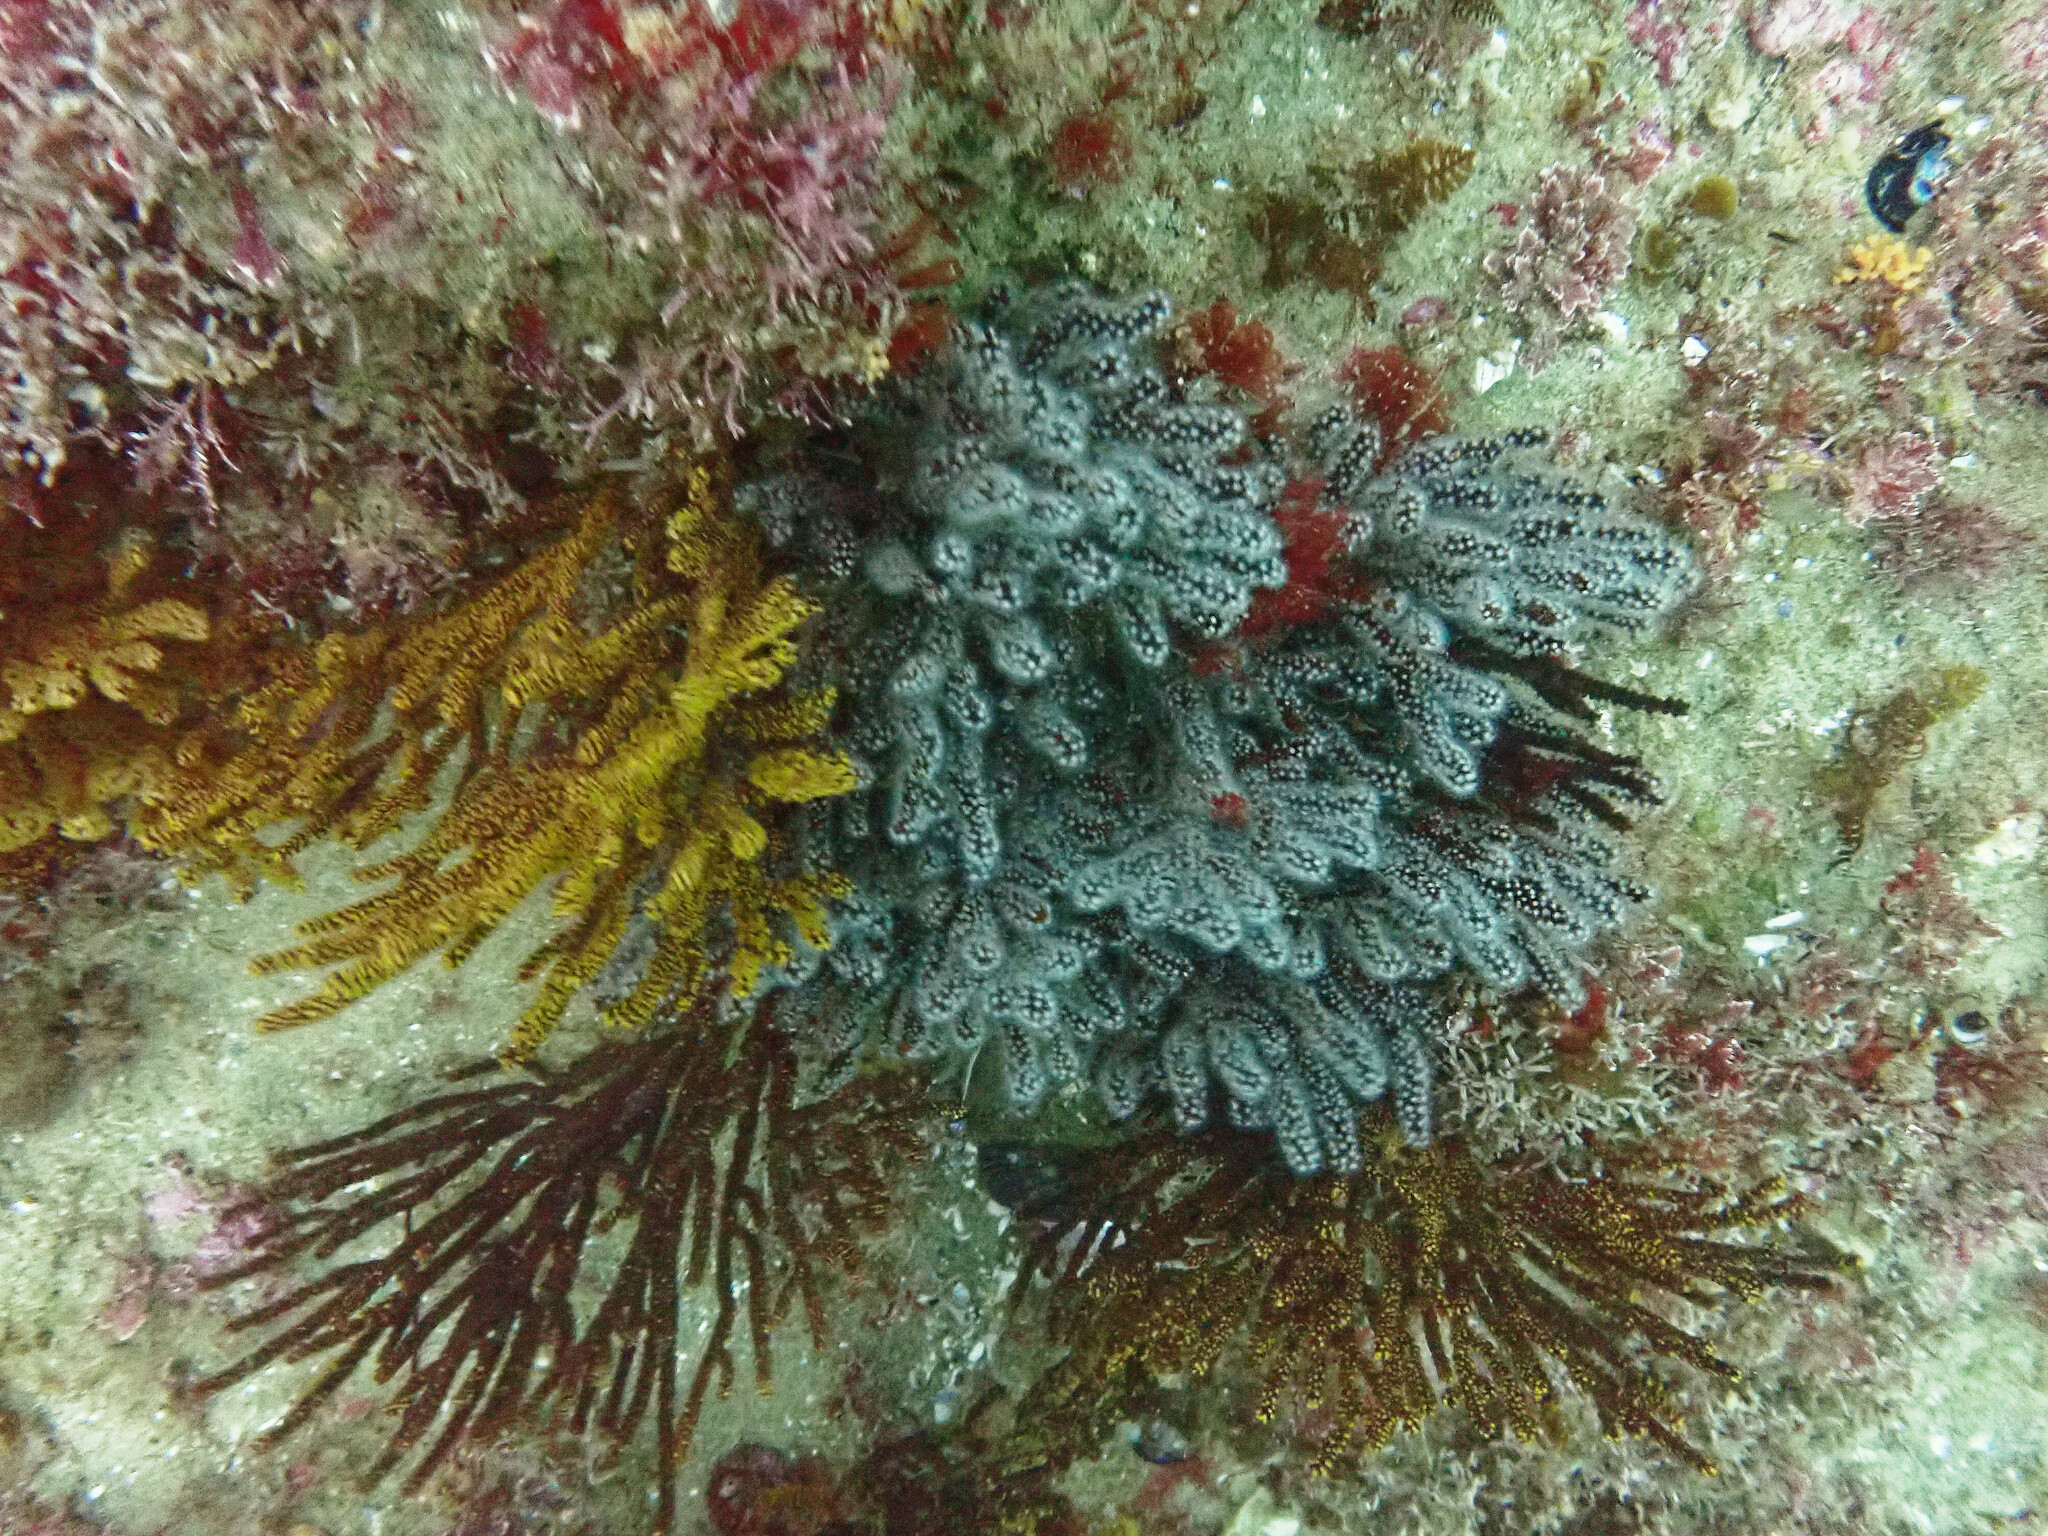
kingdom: Animalia
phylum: Cnidaria
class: Anthozoa
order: Malacalcyonacea
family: Plexauridae
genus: Muricea
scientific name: Muricea fruticosa
